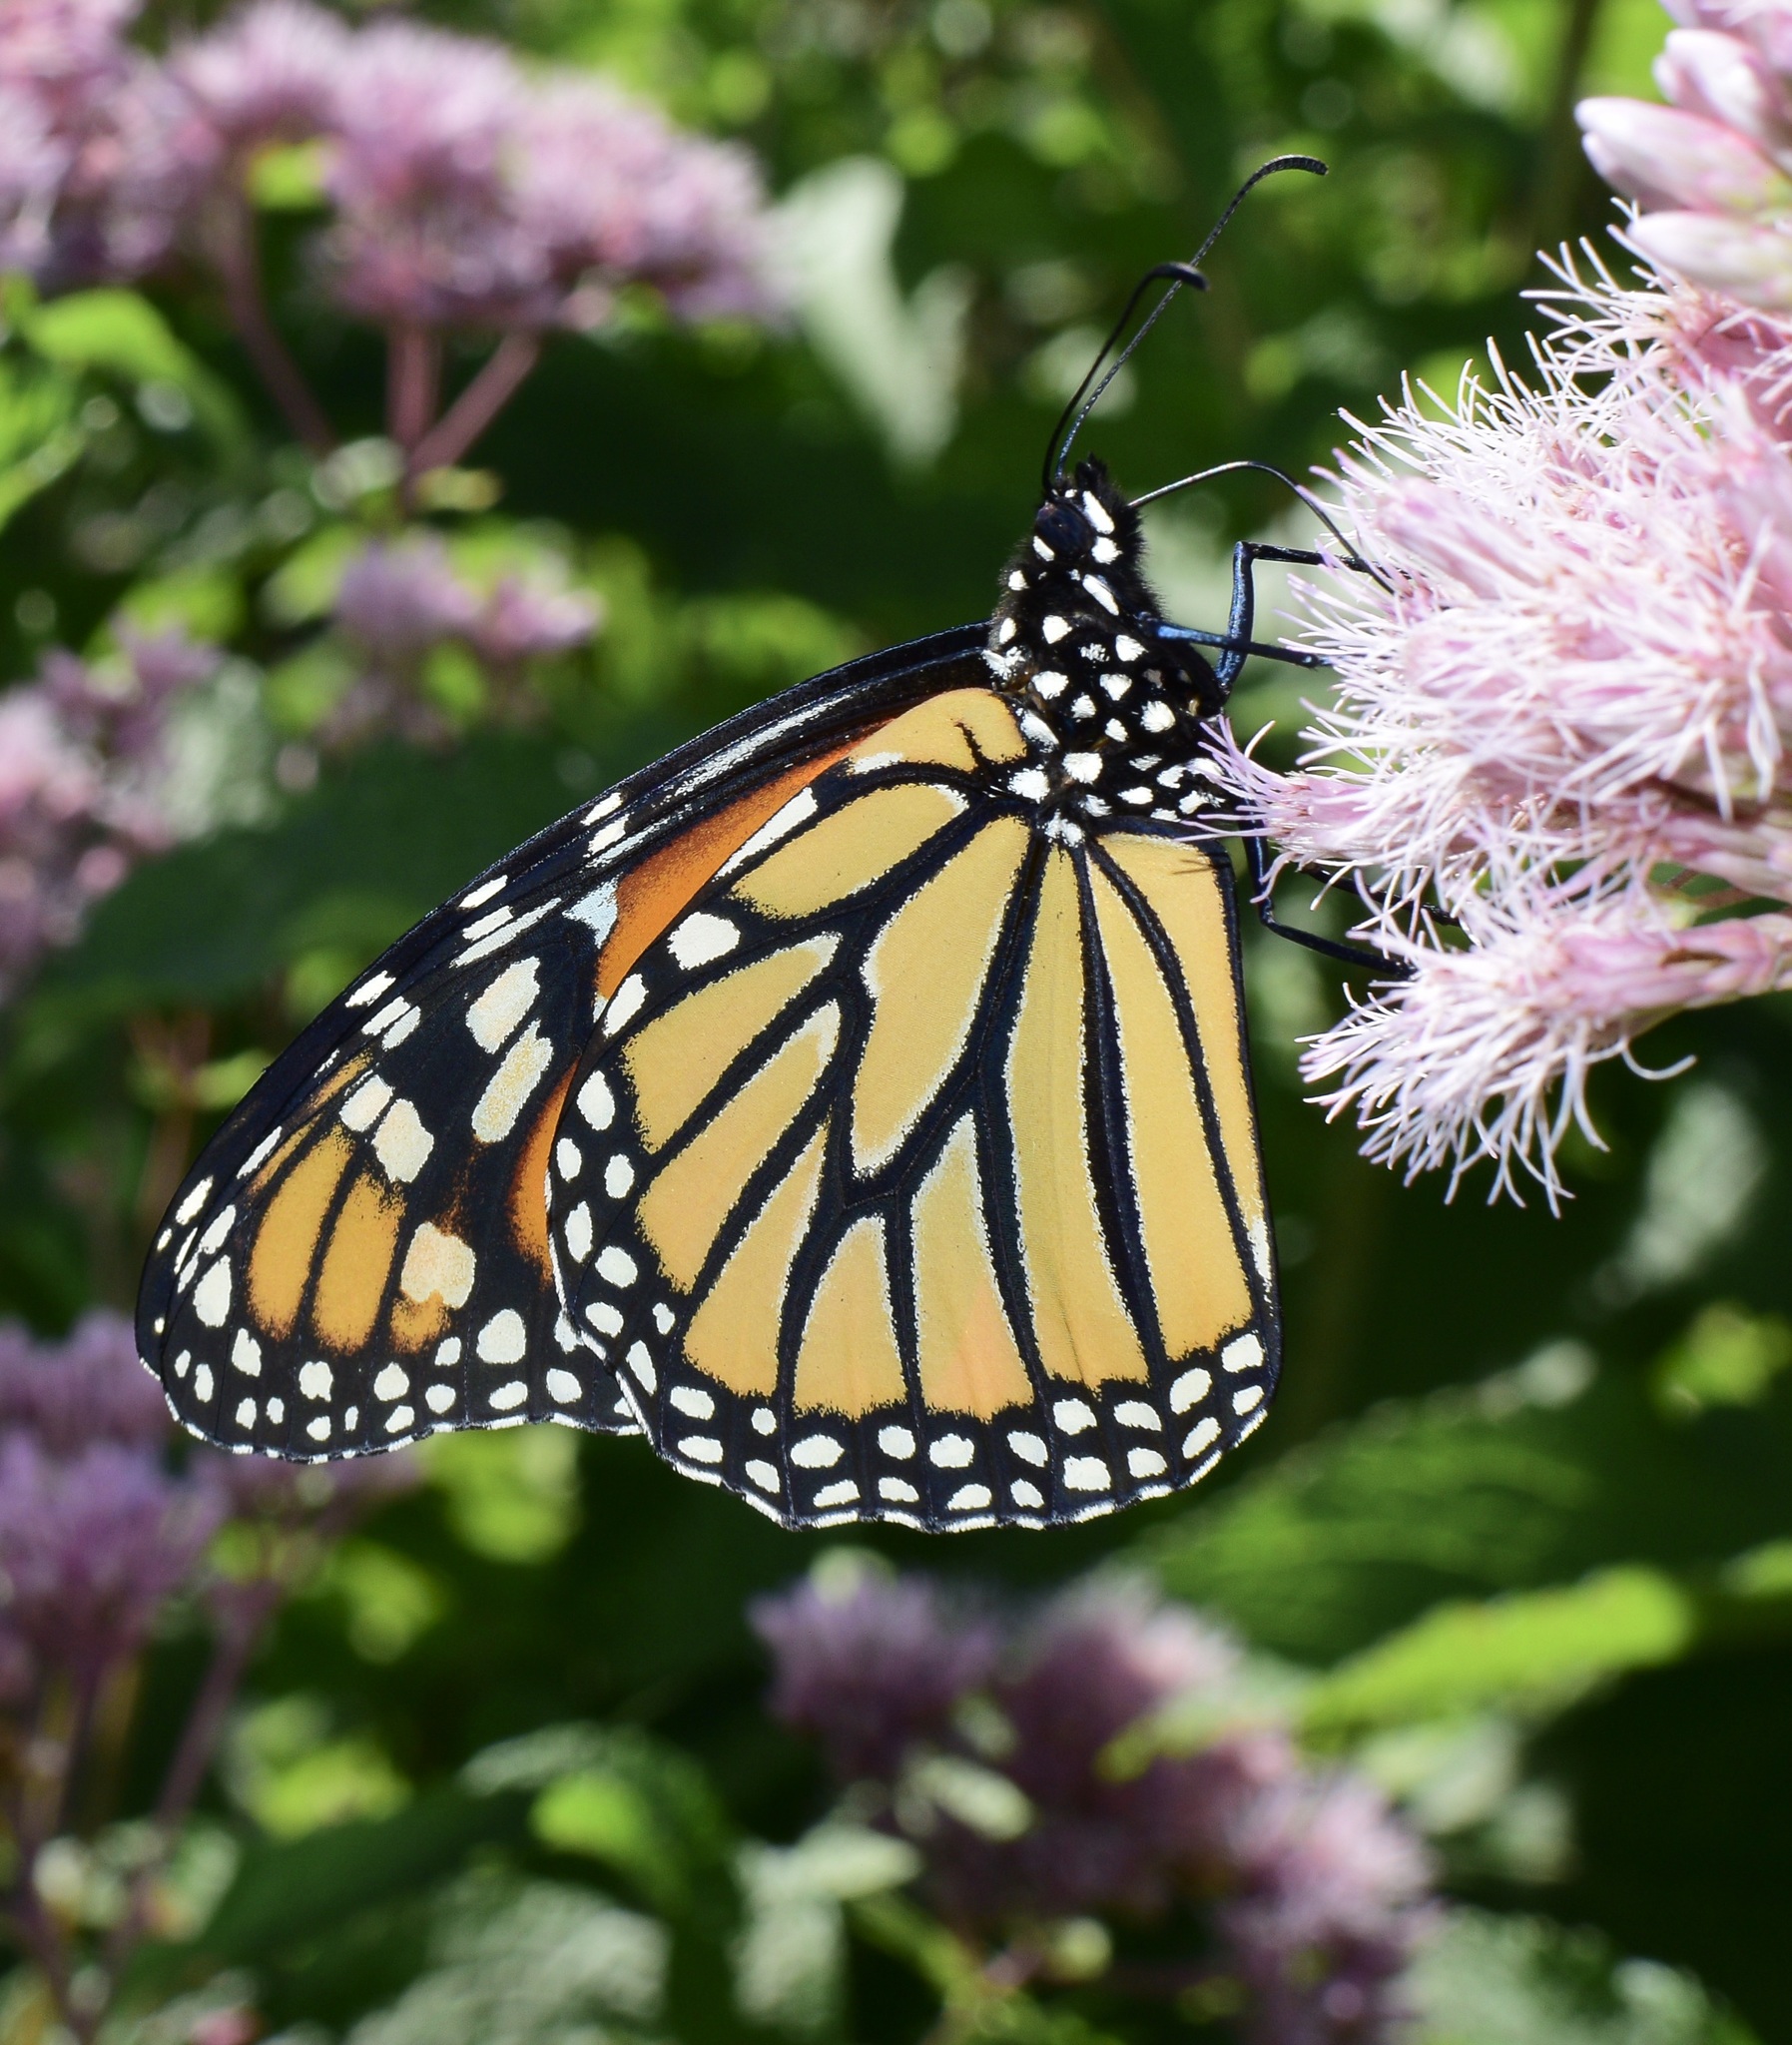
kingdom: Animalia
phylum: Arthropoda
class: Insecta
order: Lepidoptera
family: Nymphalidae
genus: Danaus
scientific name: Danaus plexippus
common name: Monarch
